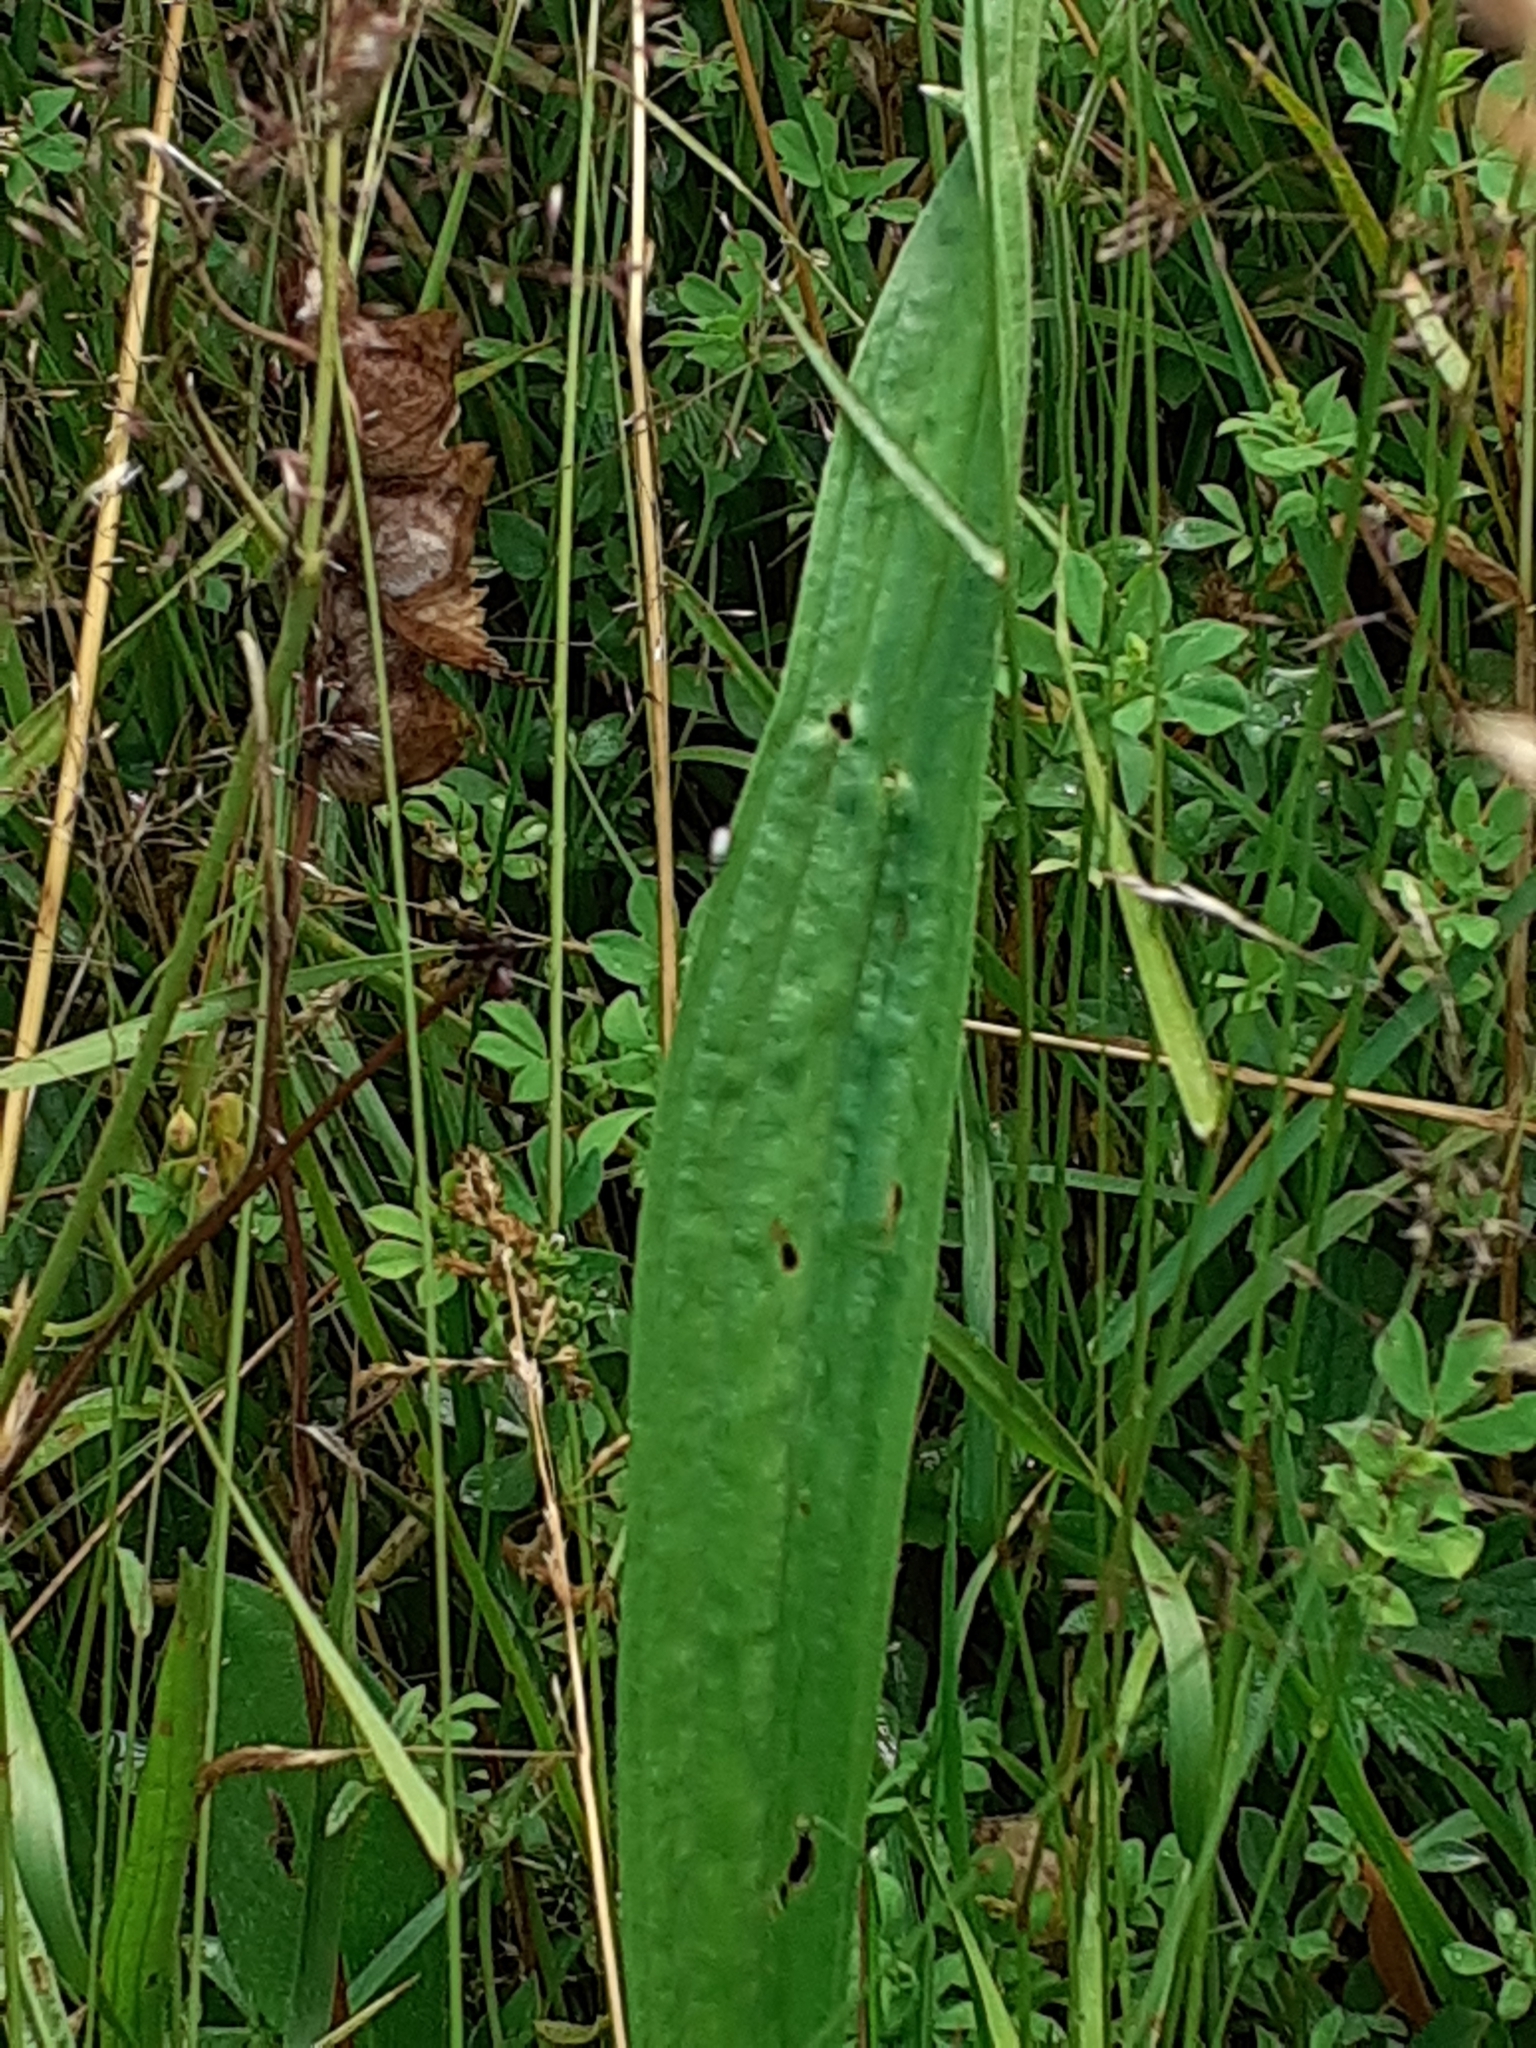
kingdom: Plantae
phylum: Tracheophyta
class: Magnoliopsida
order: Lamiales
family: Plantaginaceae
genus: Plantago
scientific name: Plantago lanceolata
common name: Ribwort plantain
